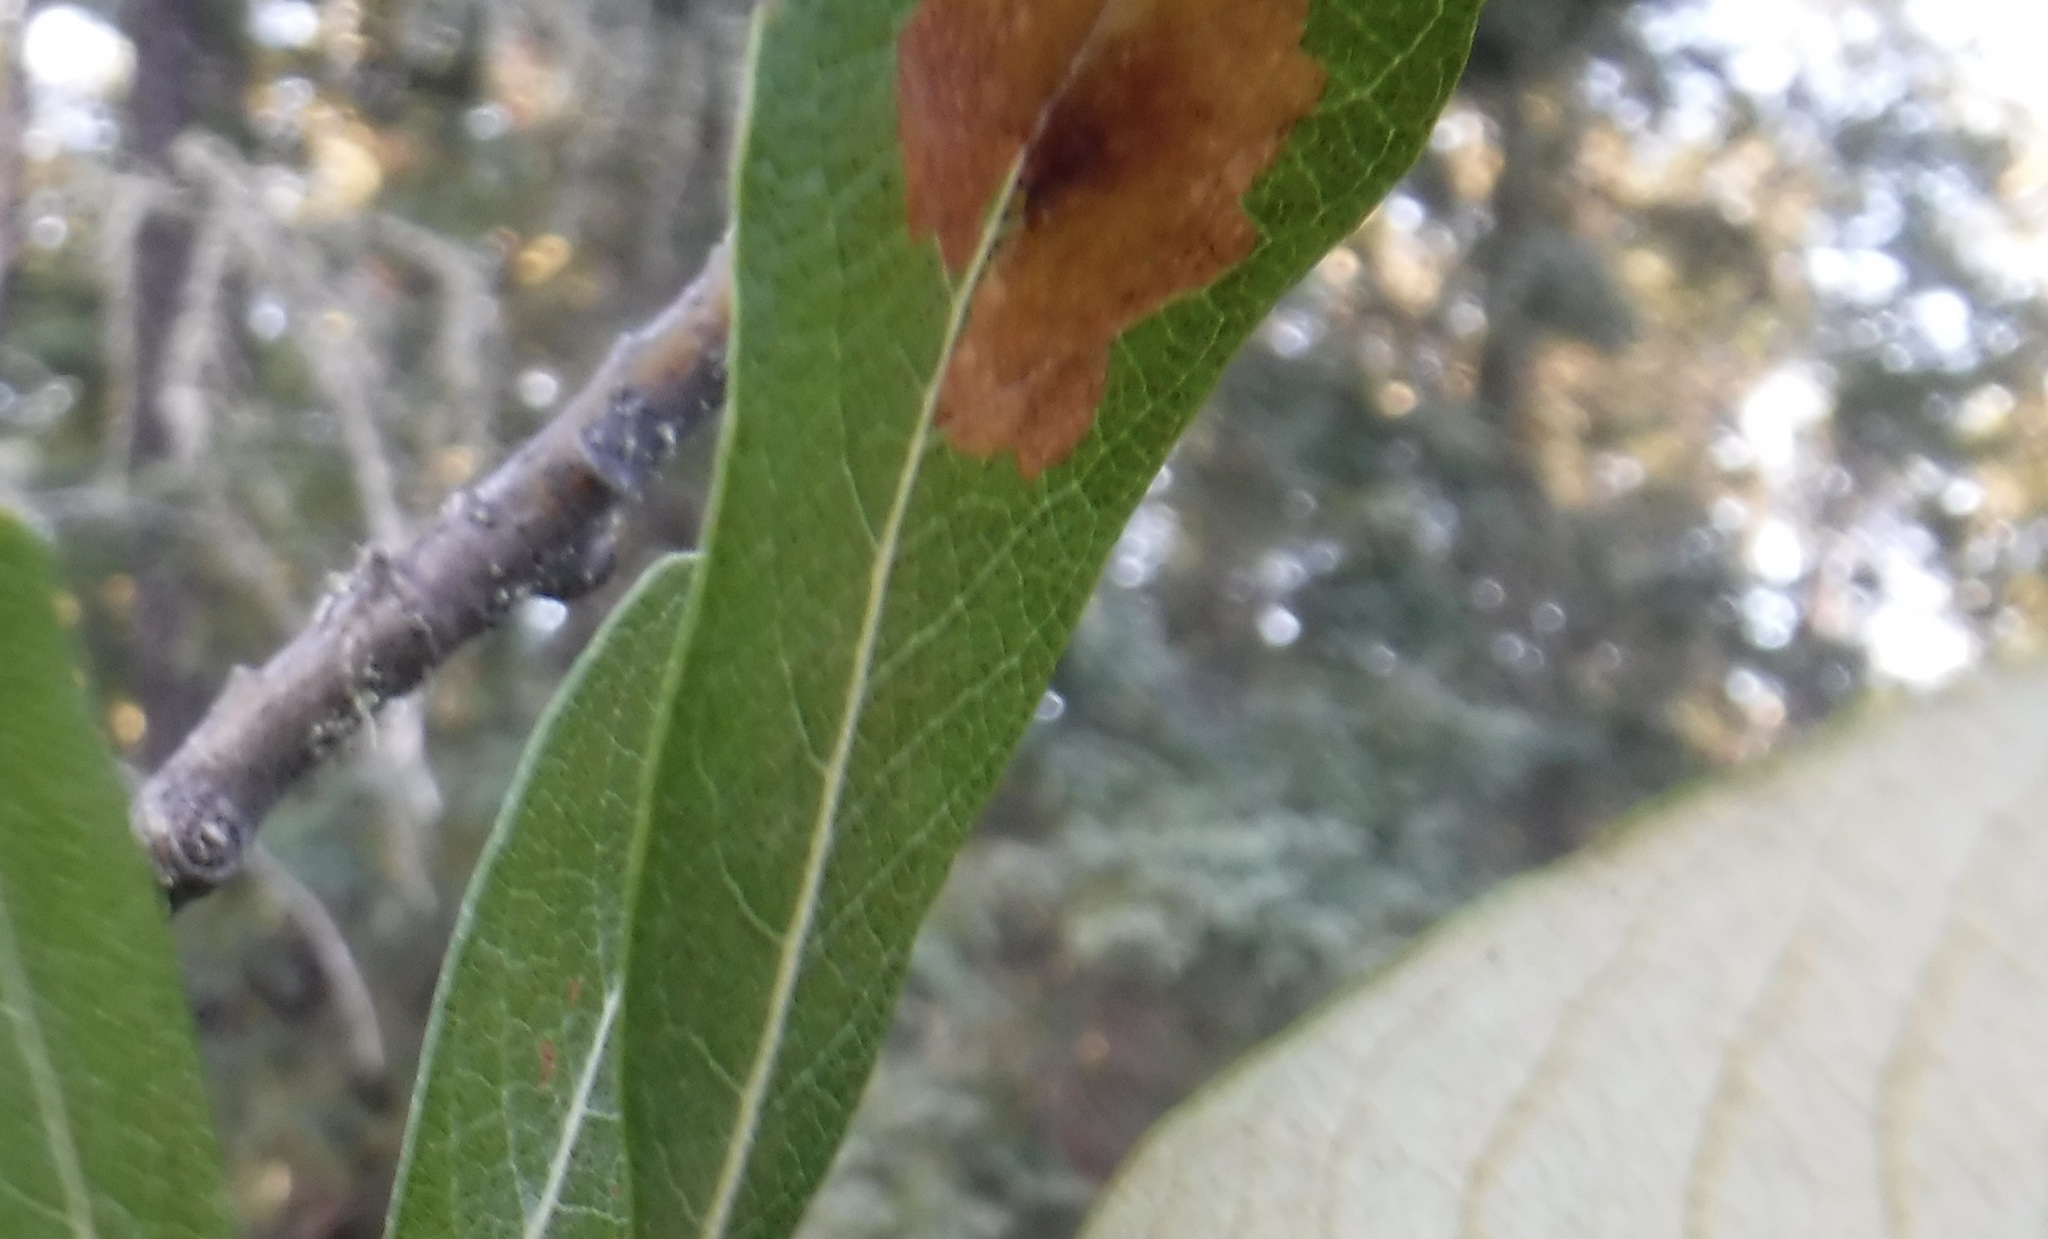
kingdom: Animalia
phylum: Arthropoda
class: Insecta
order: Lepidoptera
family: Gracillariidae
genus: Micrurapteryx
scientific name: Micrurapteryx salicifoliella
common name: Willow leaf blotch miner moth
